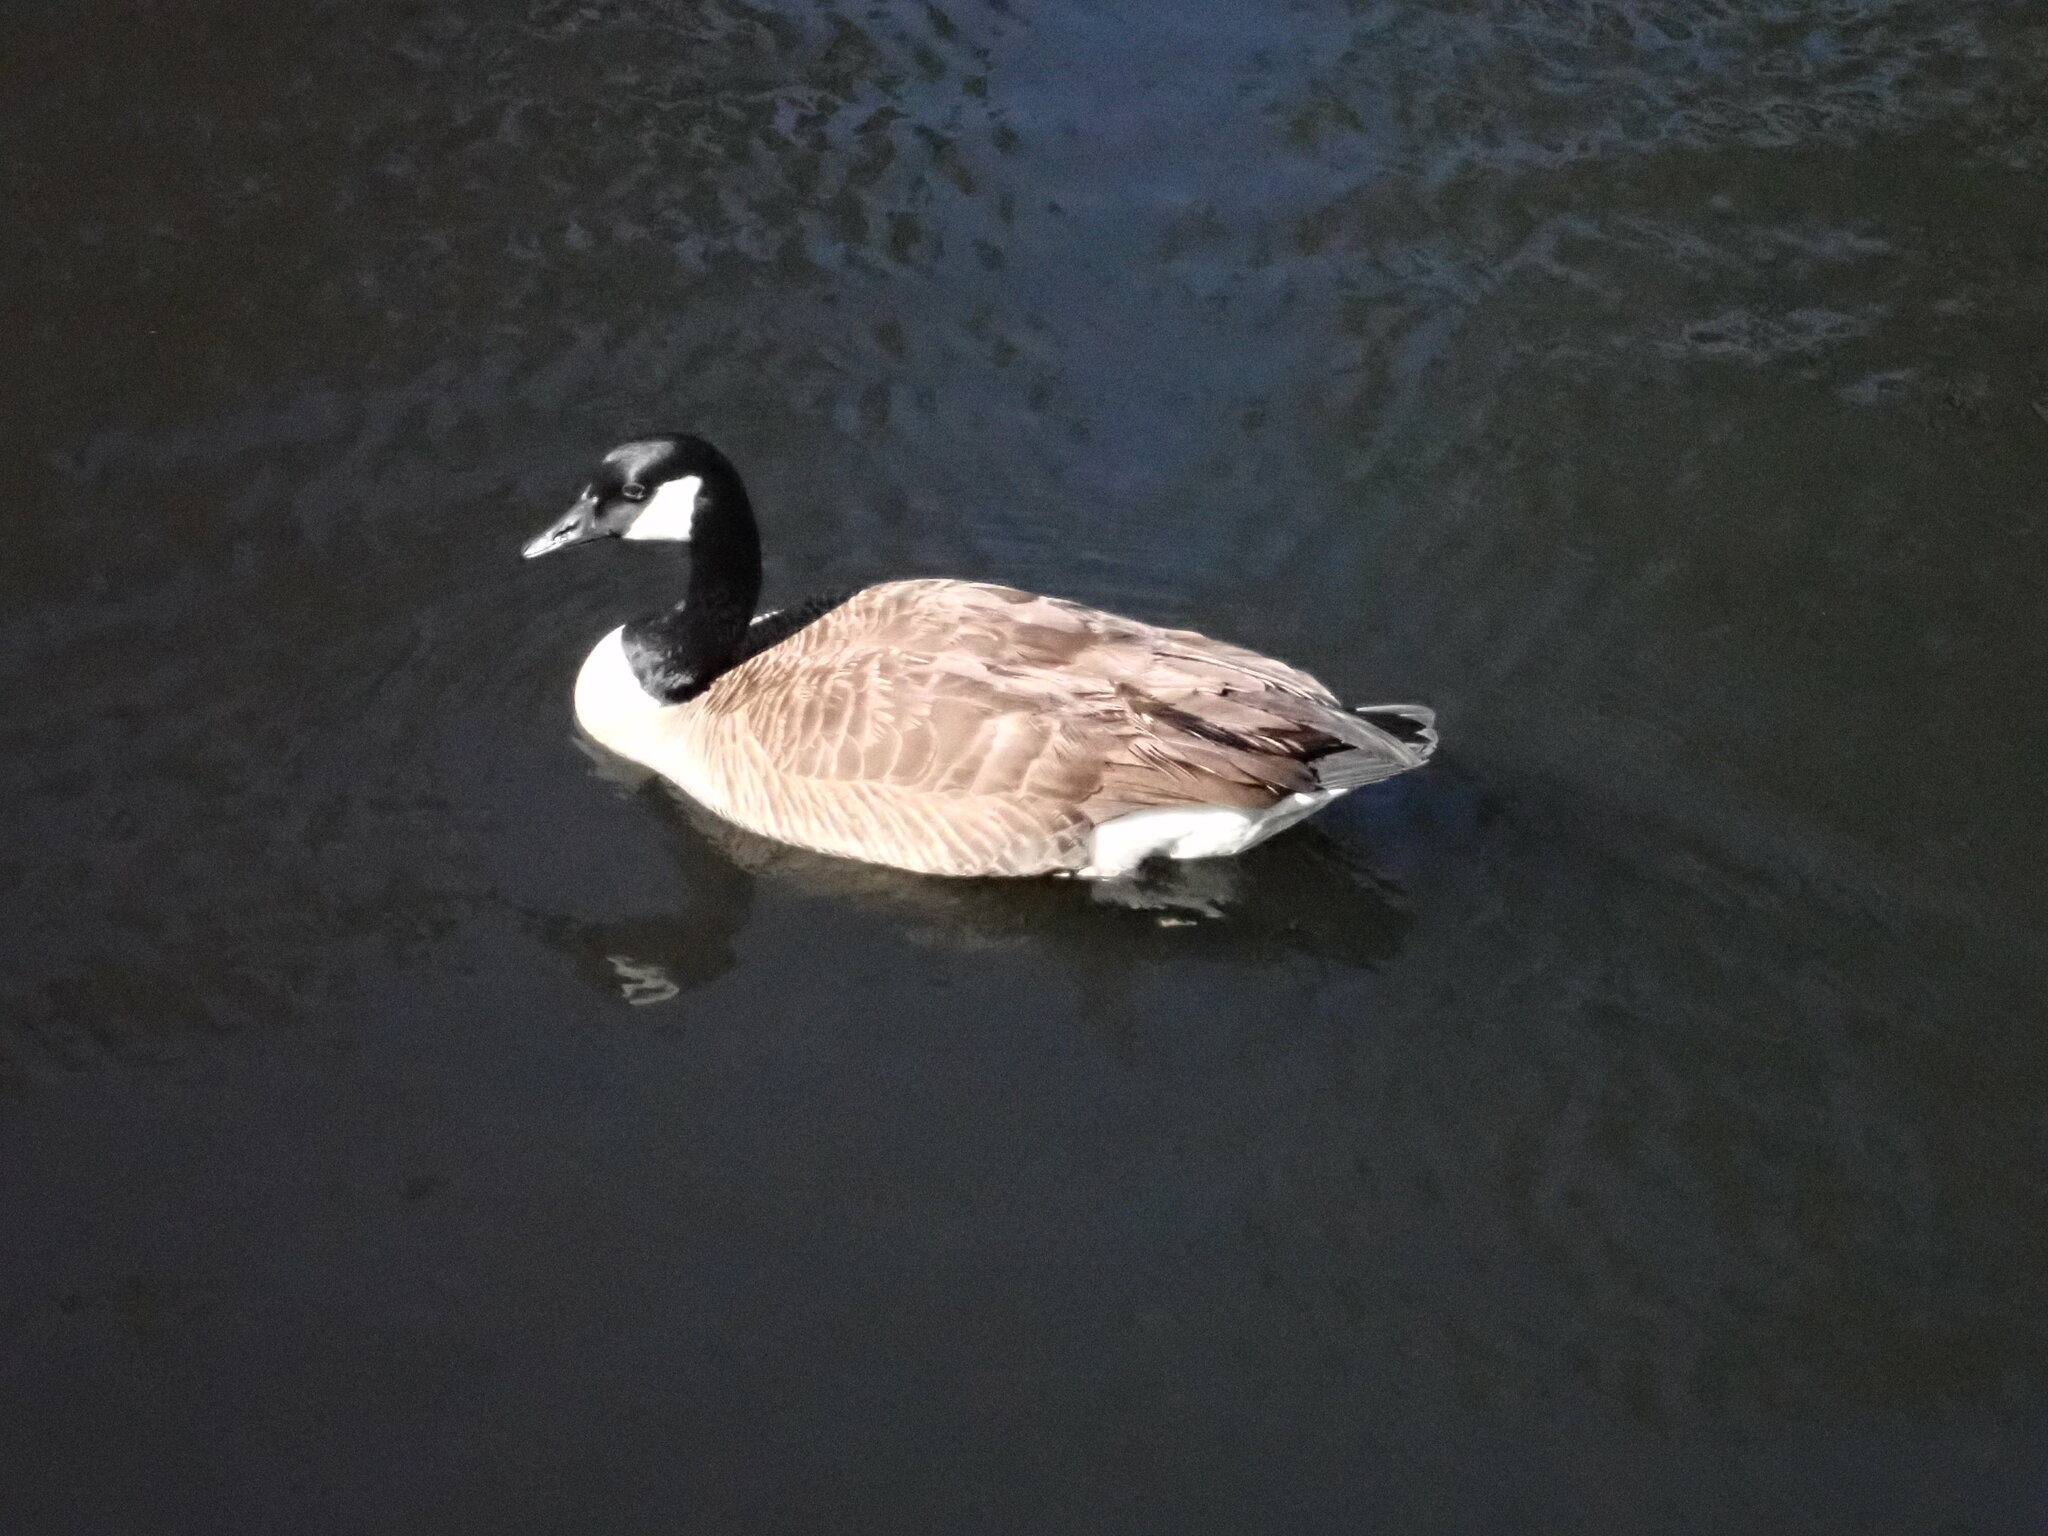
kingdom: Animalia
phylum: Chordata
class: Aves
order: Anseriformes
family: Anatidae
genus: Branta
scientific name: Branta canadensis
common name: Canada goose
